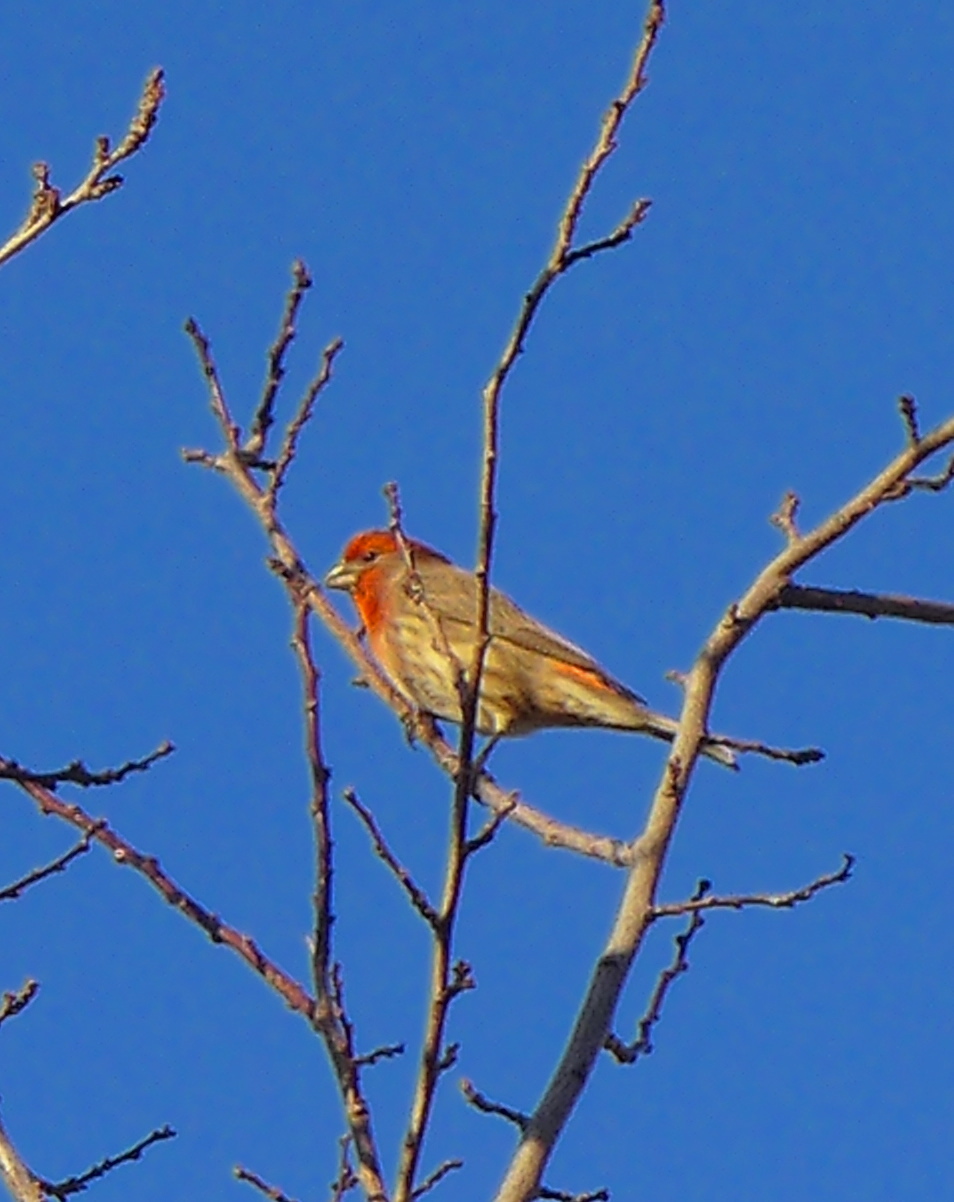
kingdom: Animalia
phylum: Chordata
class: Aves
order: Passeriformes
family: Fringillidae
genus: Haemorhous
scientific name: Haemorhous mexicanus
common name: House finch
